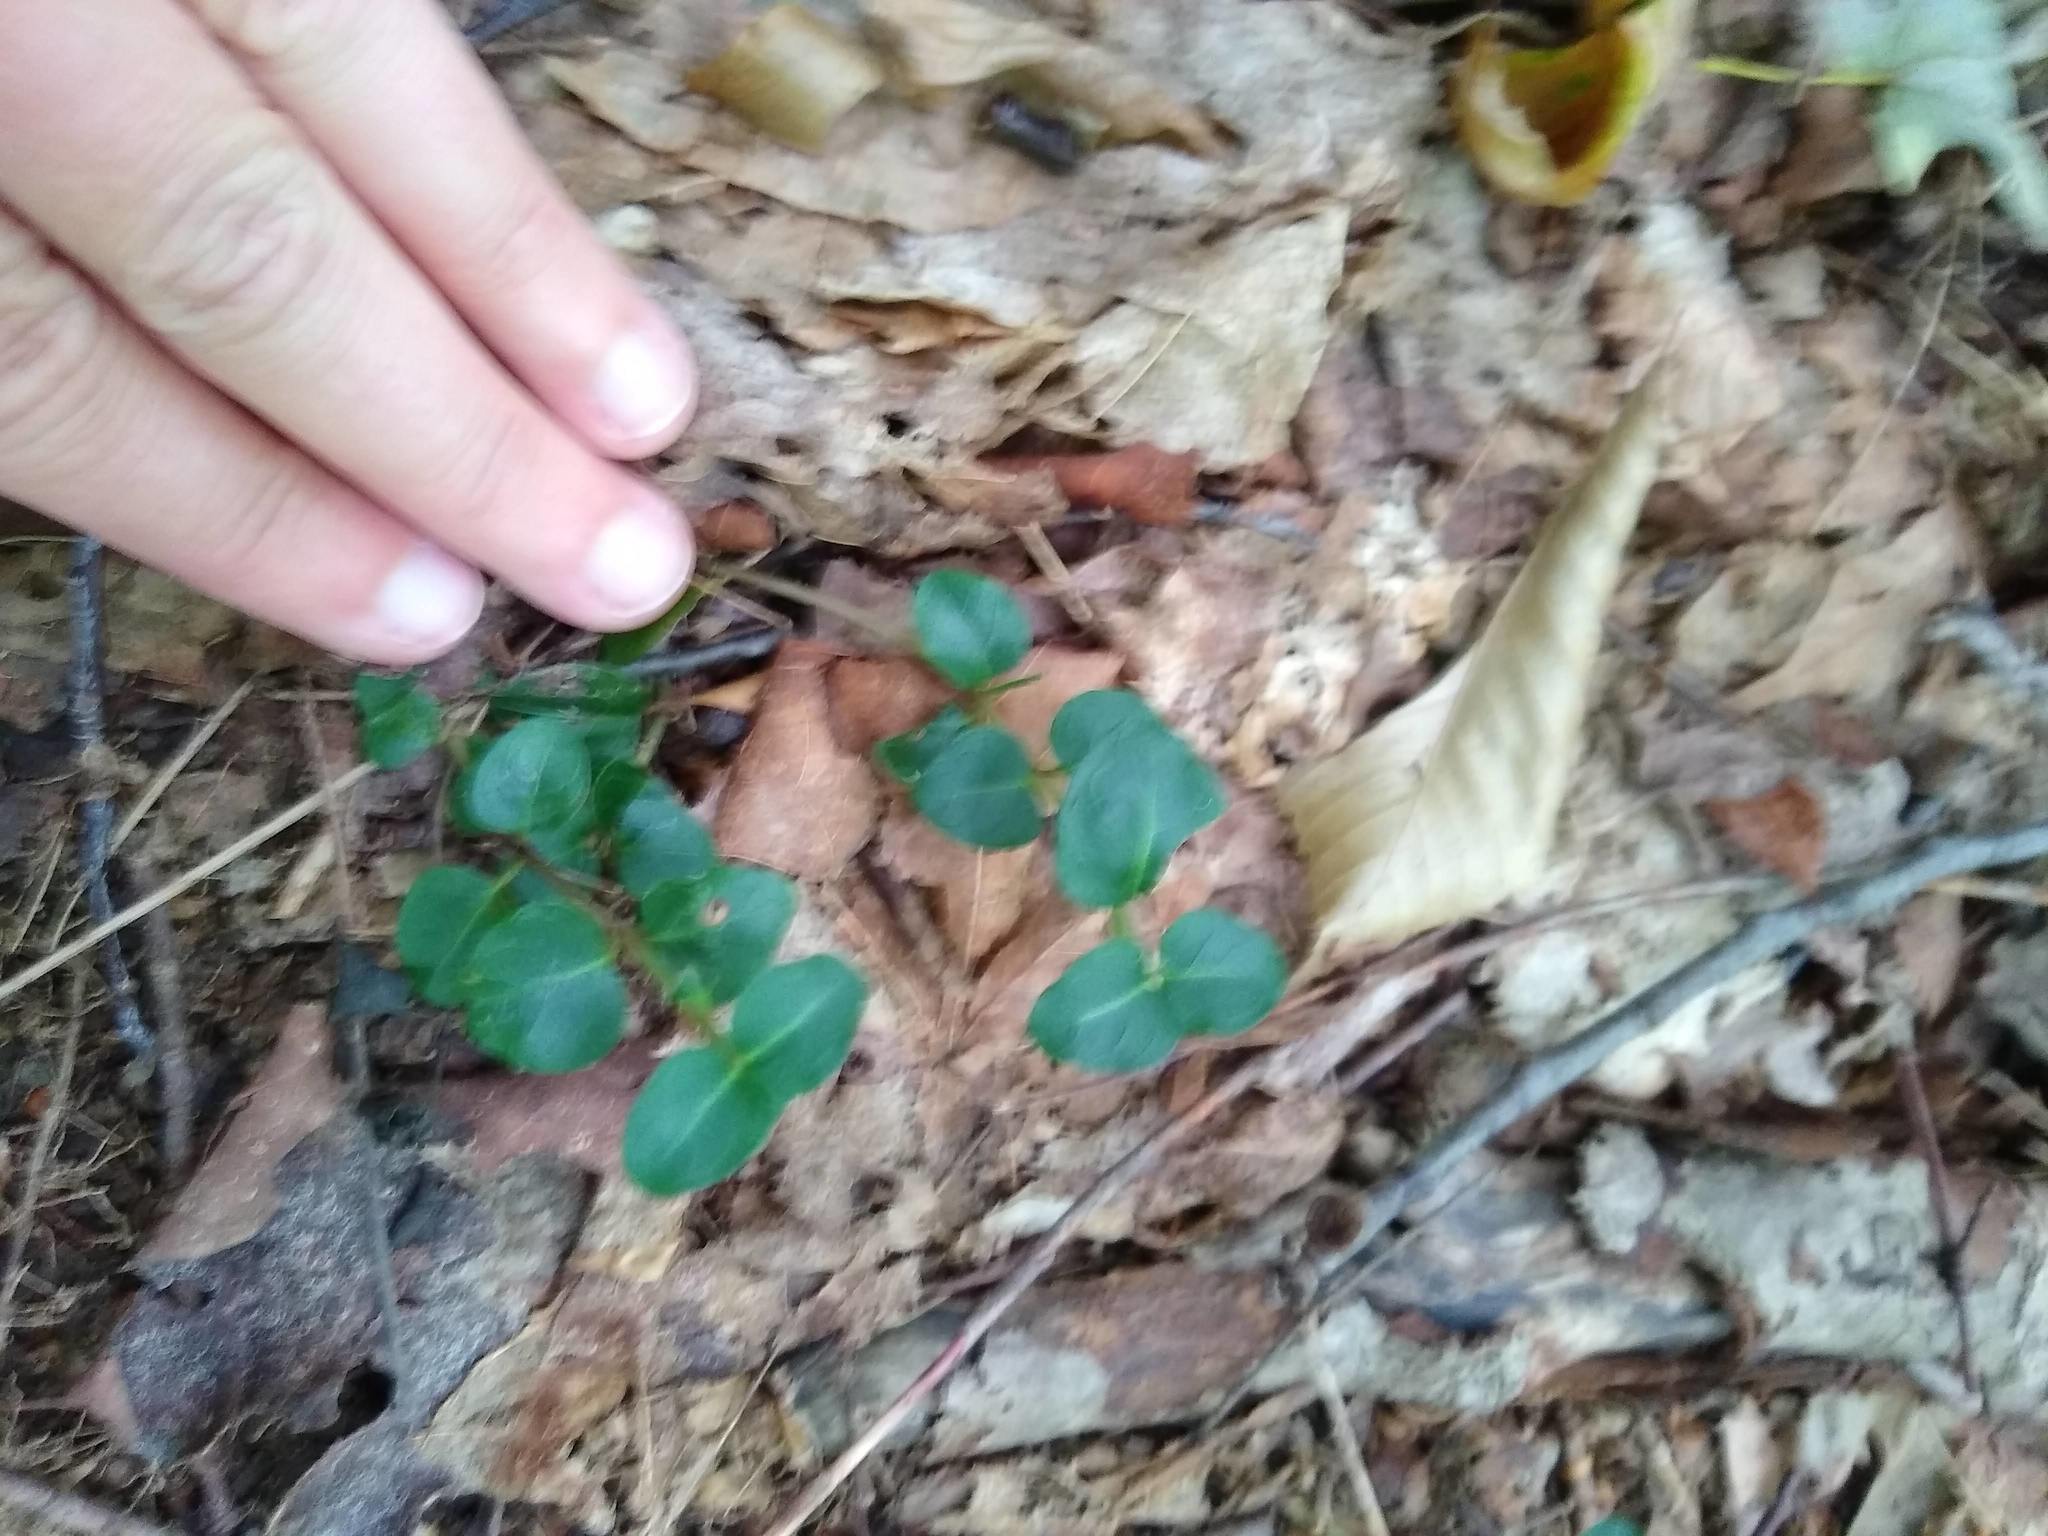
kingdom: Plantae
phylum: Tracheophyta
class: Magnoliopsida
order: Gentianales
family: Rubiaceae
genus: Mitchella
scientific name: Mitchella repens
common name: Partridge-berry
